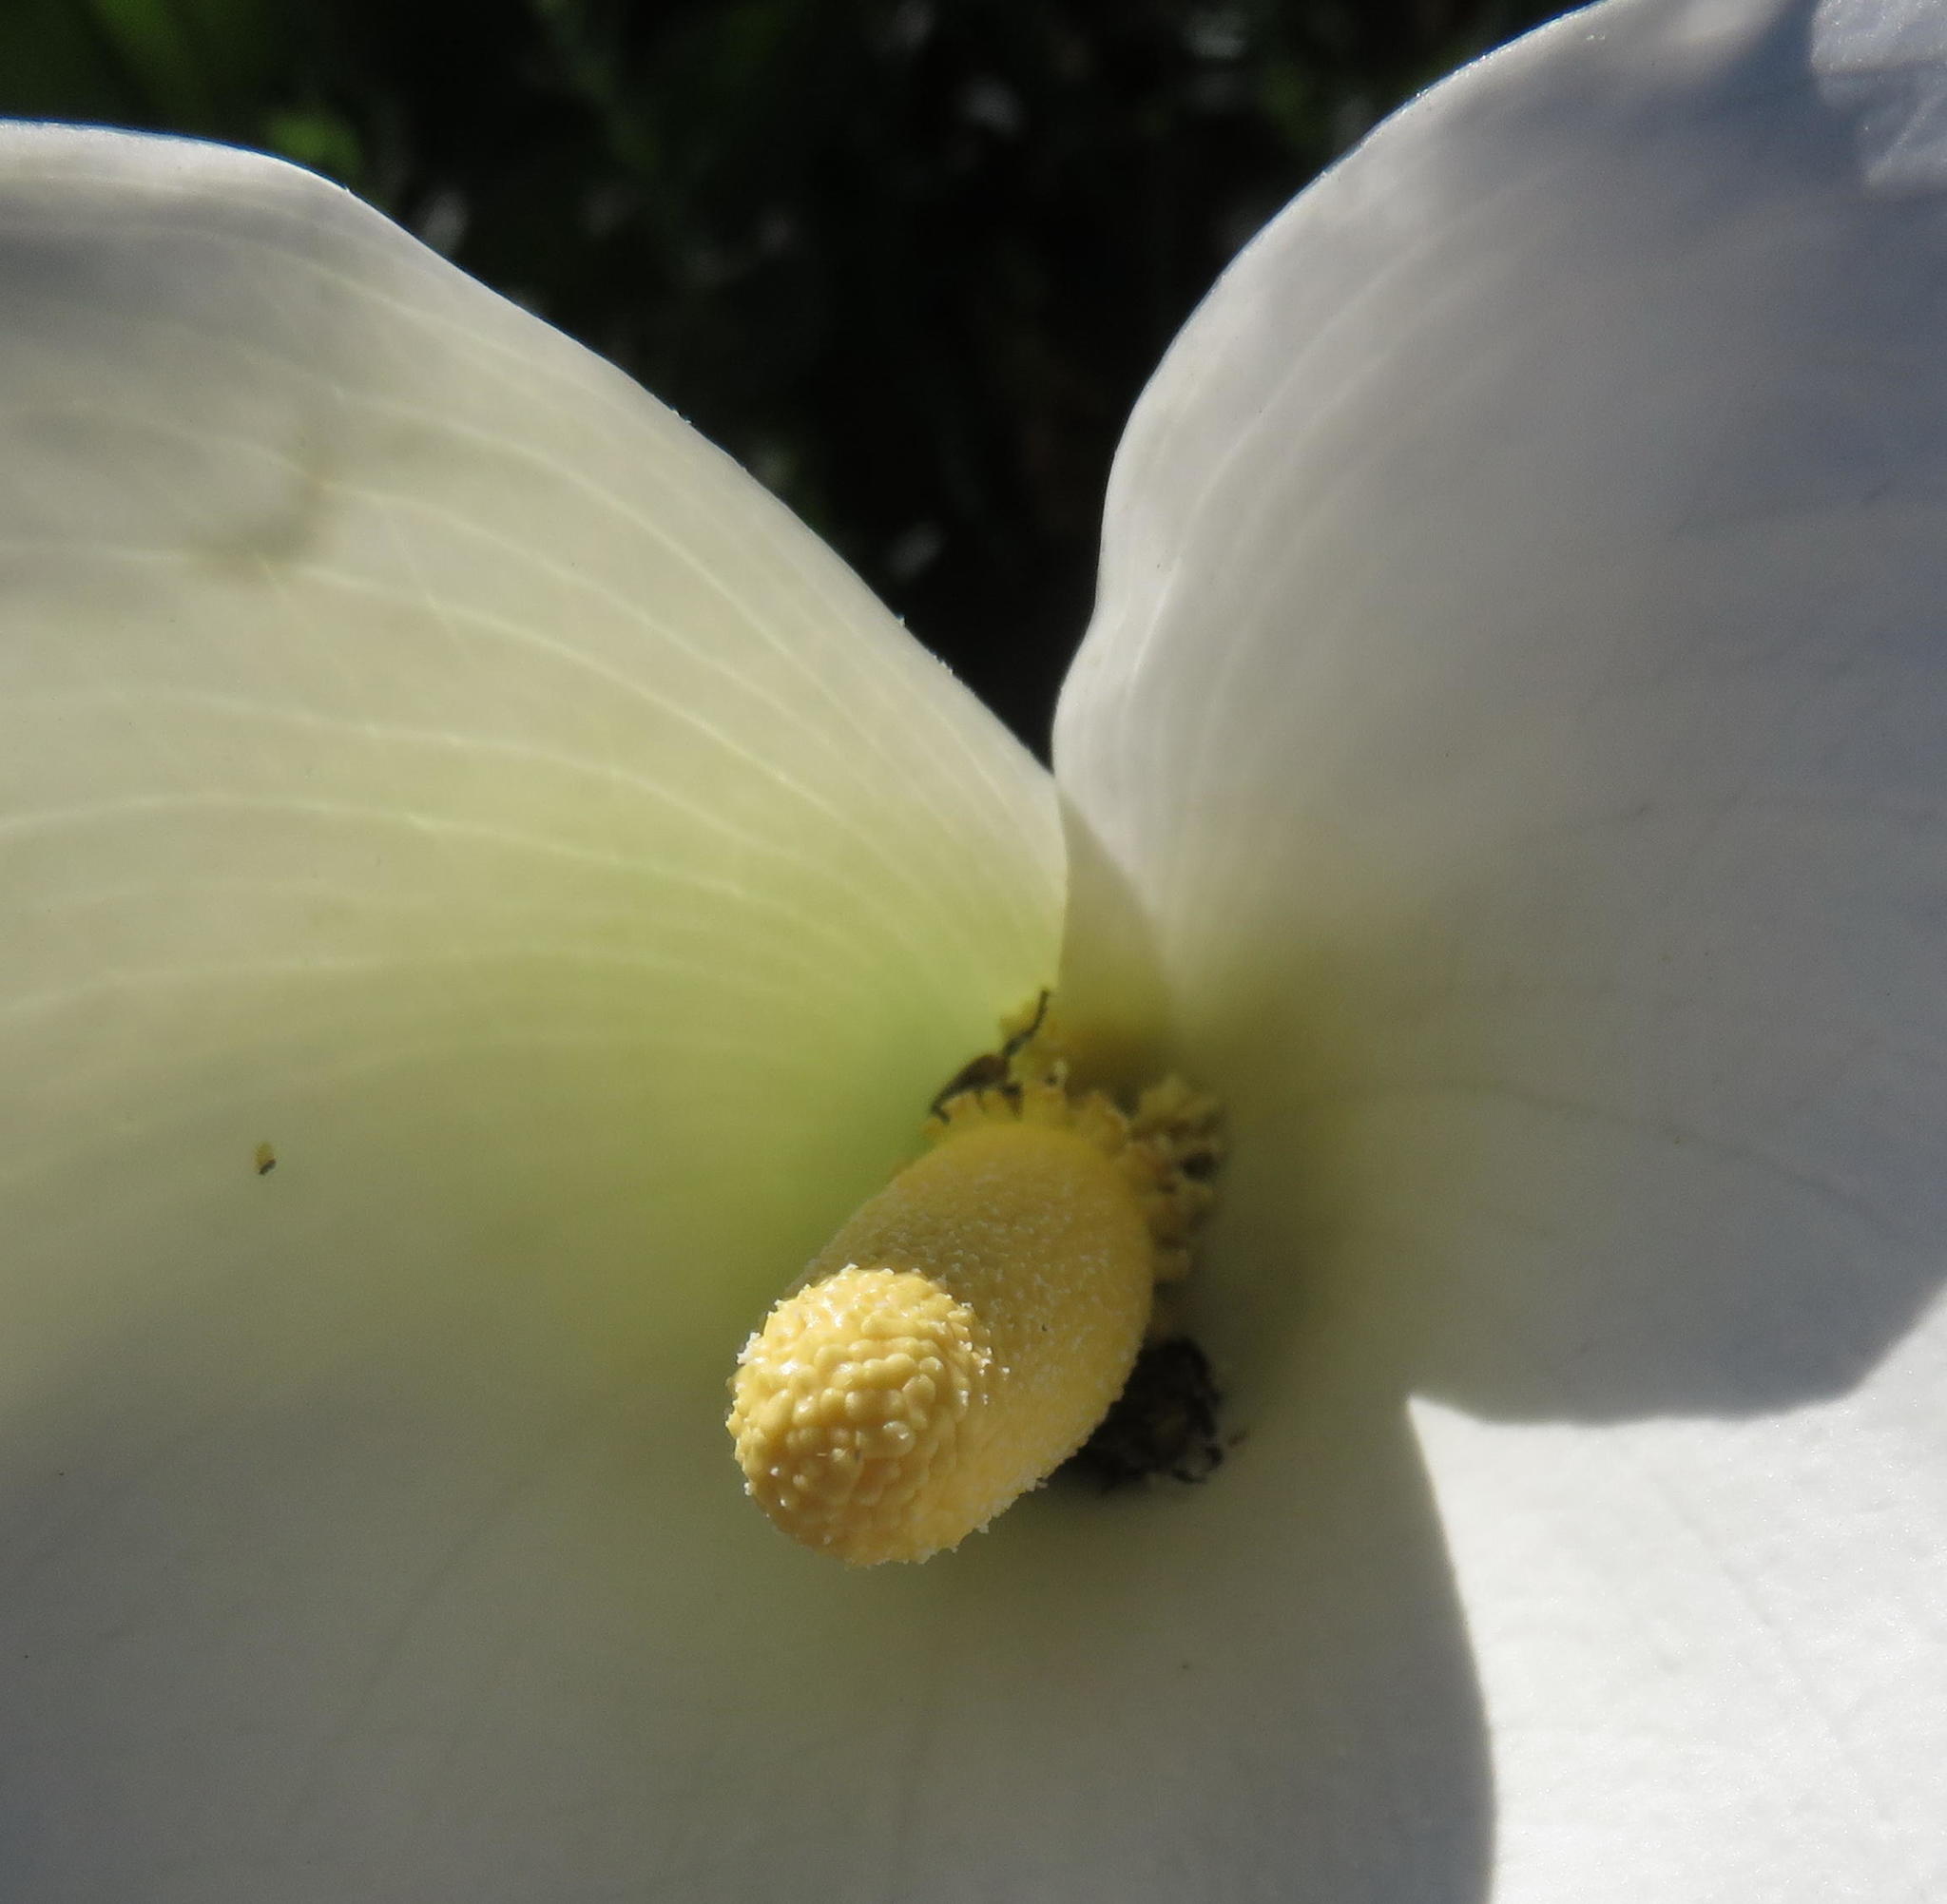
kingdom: Plantae
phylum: Tracheophyta
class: Liliopsida
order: Alismatales
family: Araceae
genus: Zantedeschia
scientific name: Zantedeschia aethiopica
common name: Altar-lily
